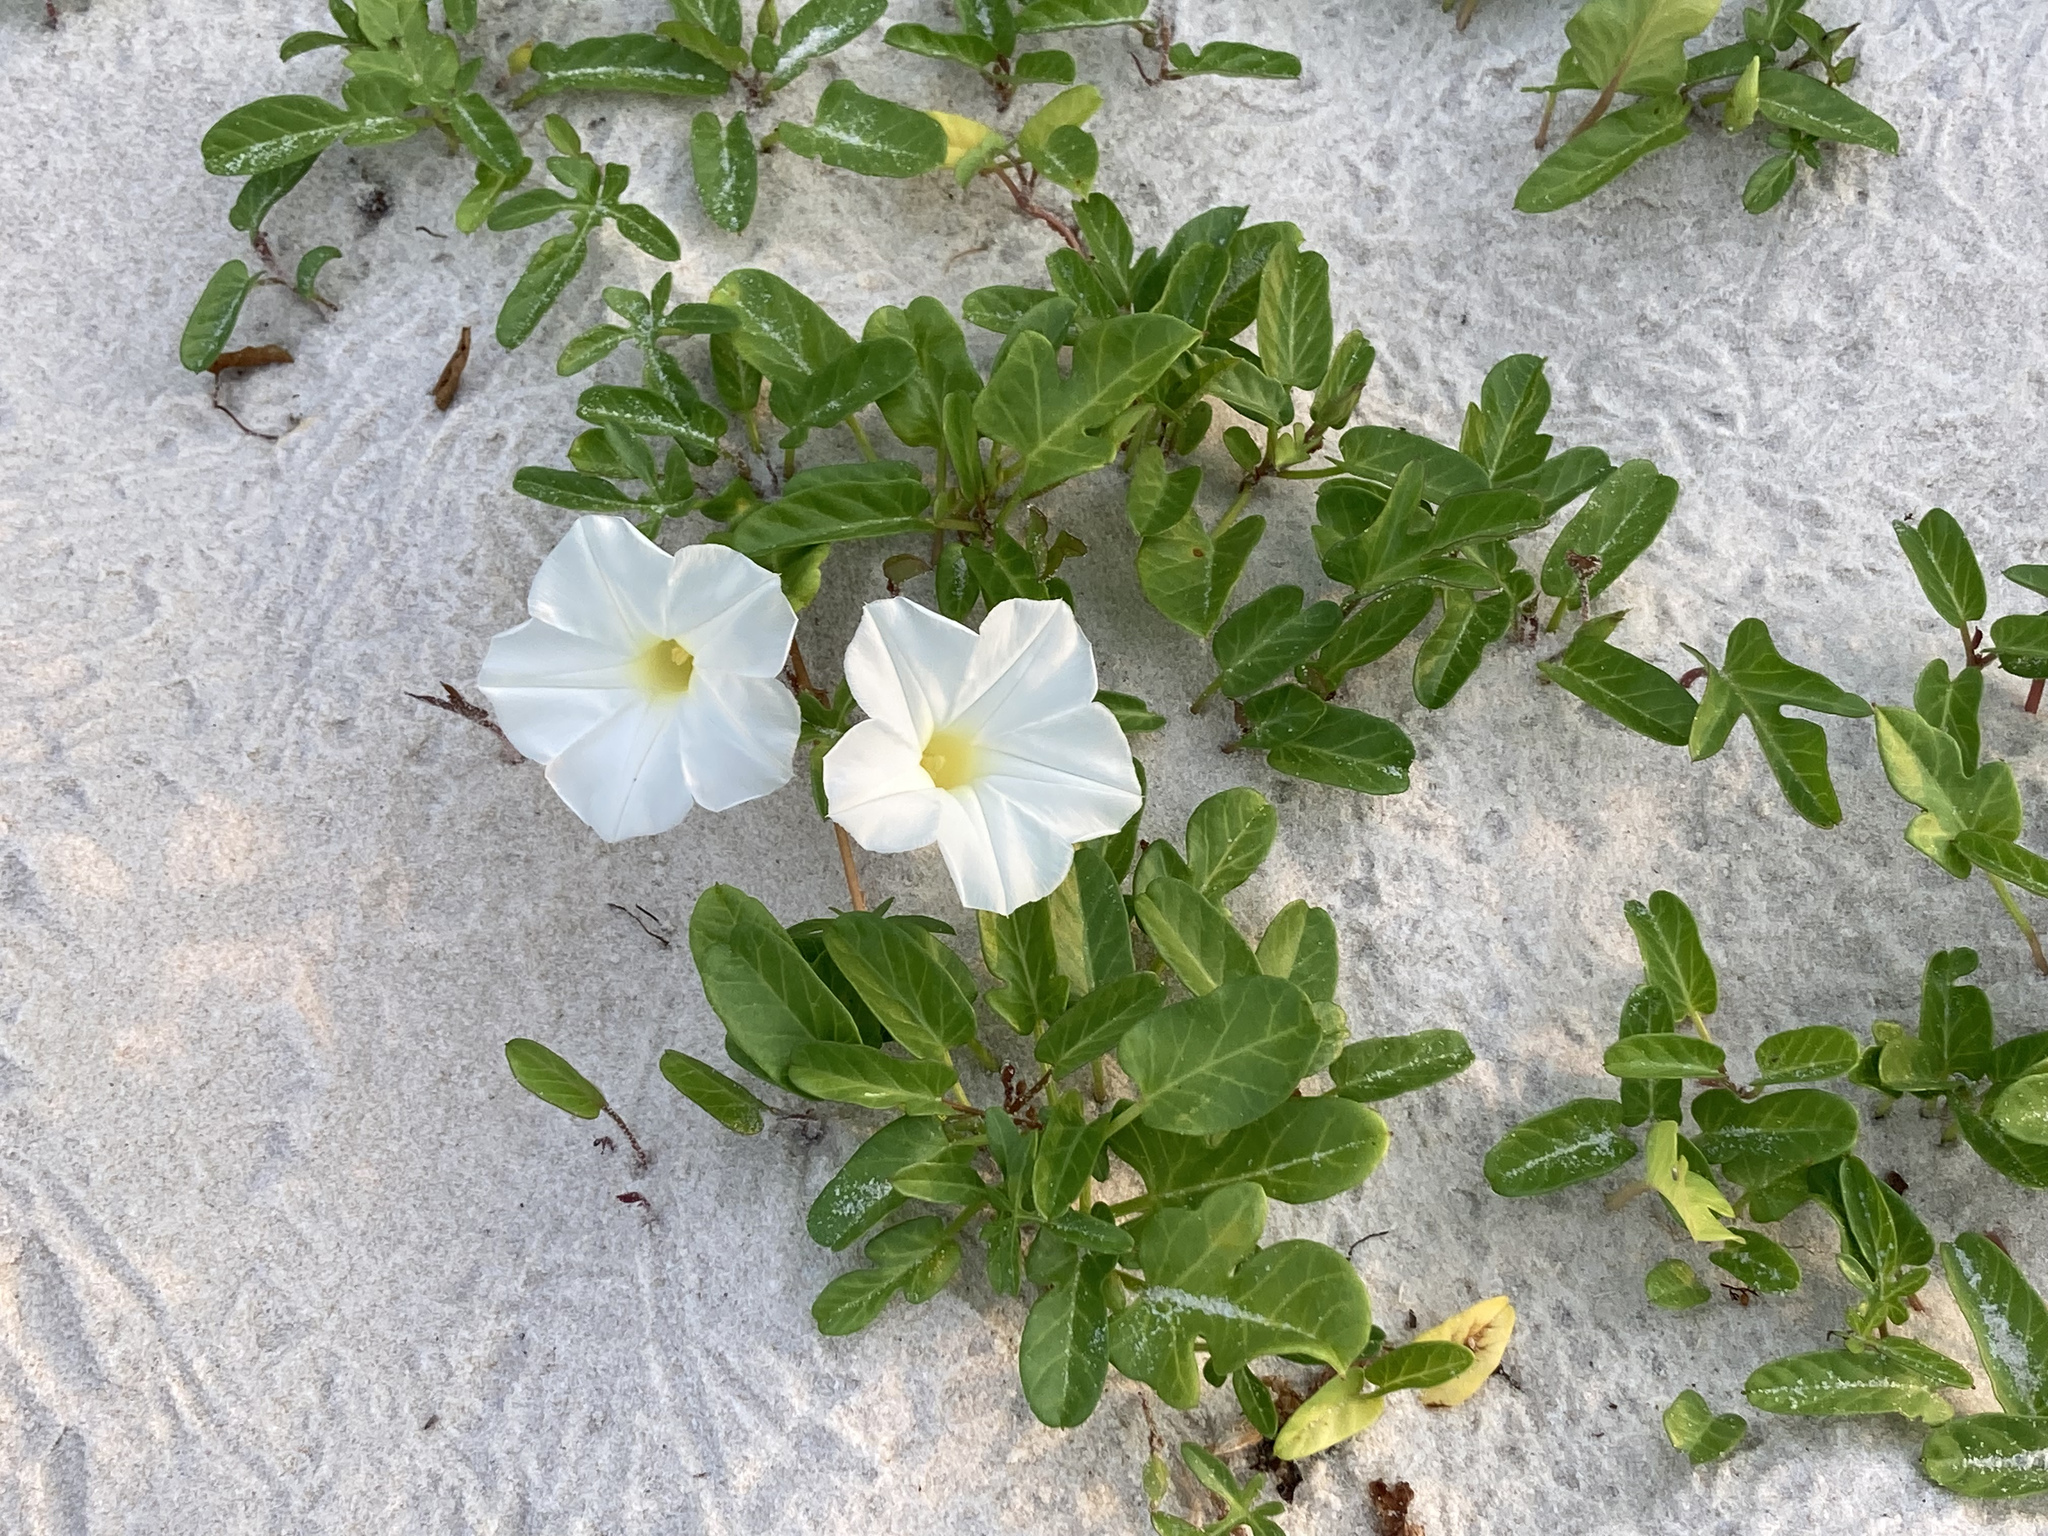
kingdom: Plantae
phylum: Tracheophyta
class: Magnoliopsida
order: Solanales
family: Convolvulaceae
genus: Ipomoea
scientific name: Ipomoea imperati
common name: Fiddle-leaf morning-glory
